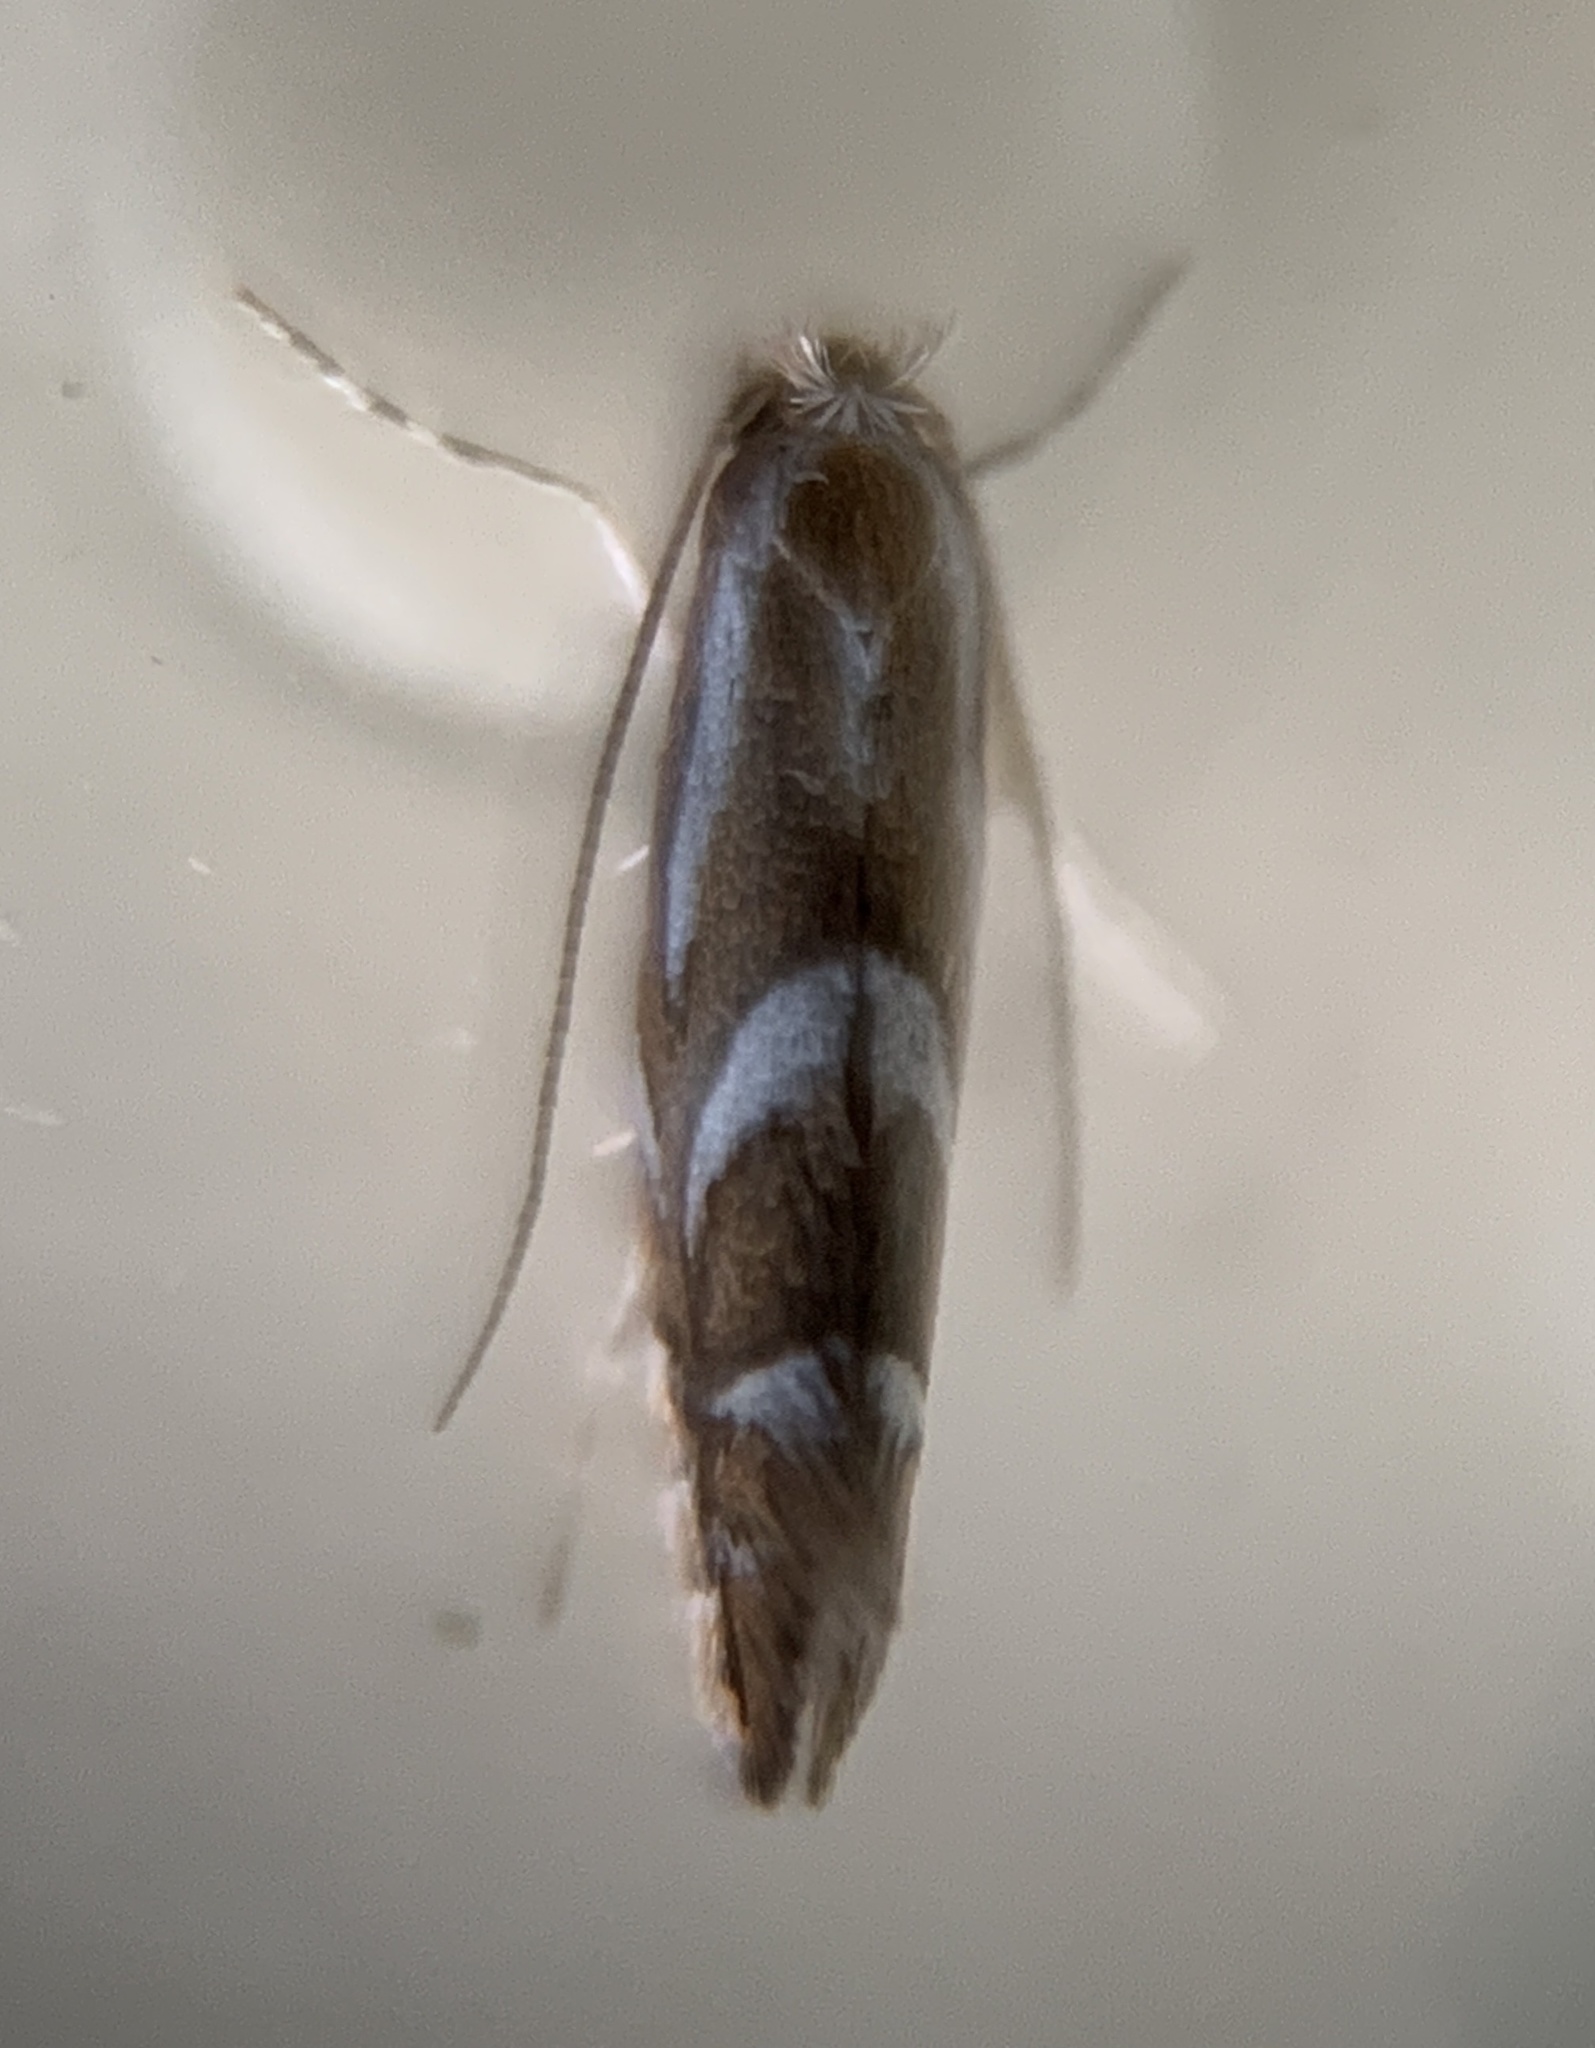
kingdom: Animalia
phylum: Arthropoda
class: Insecta
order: Lepidoptera
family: Gracillariidae
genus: Phyllonorycter
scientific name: Phyllonorycter propinquinella
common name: Cherry blotchminer
